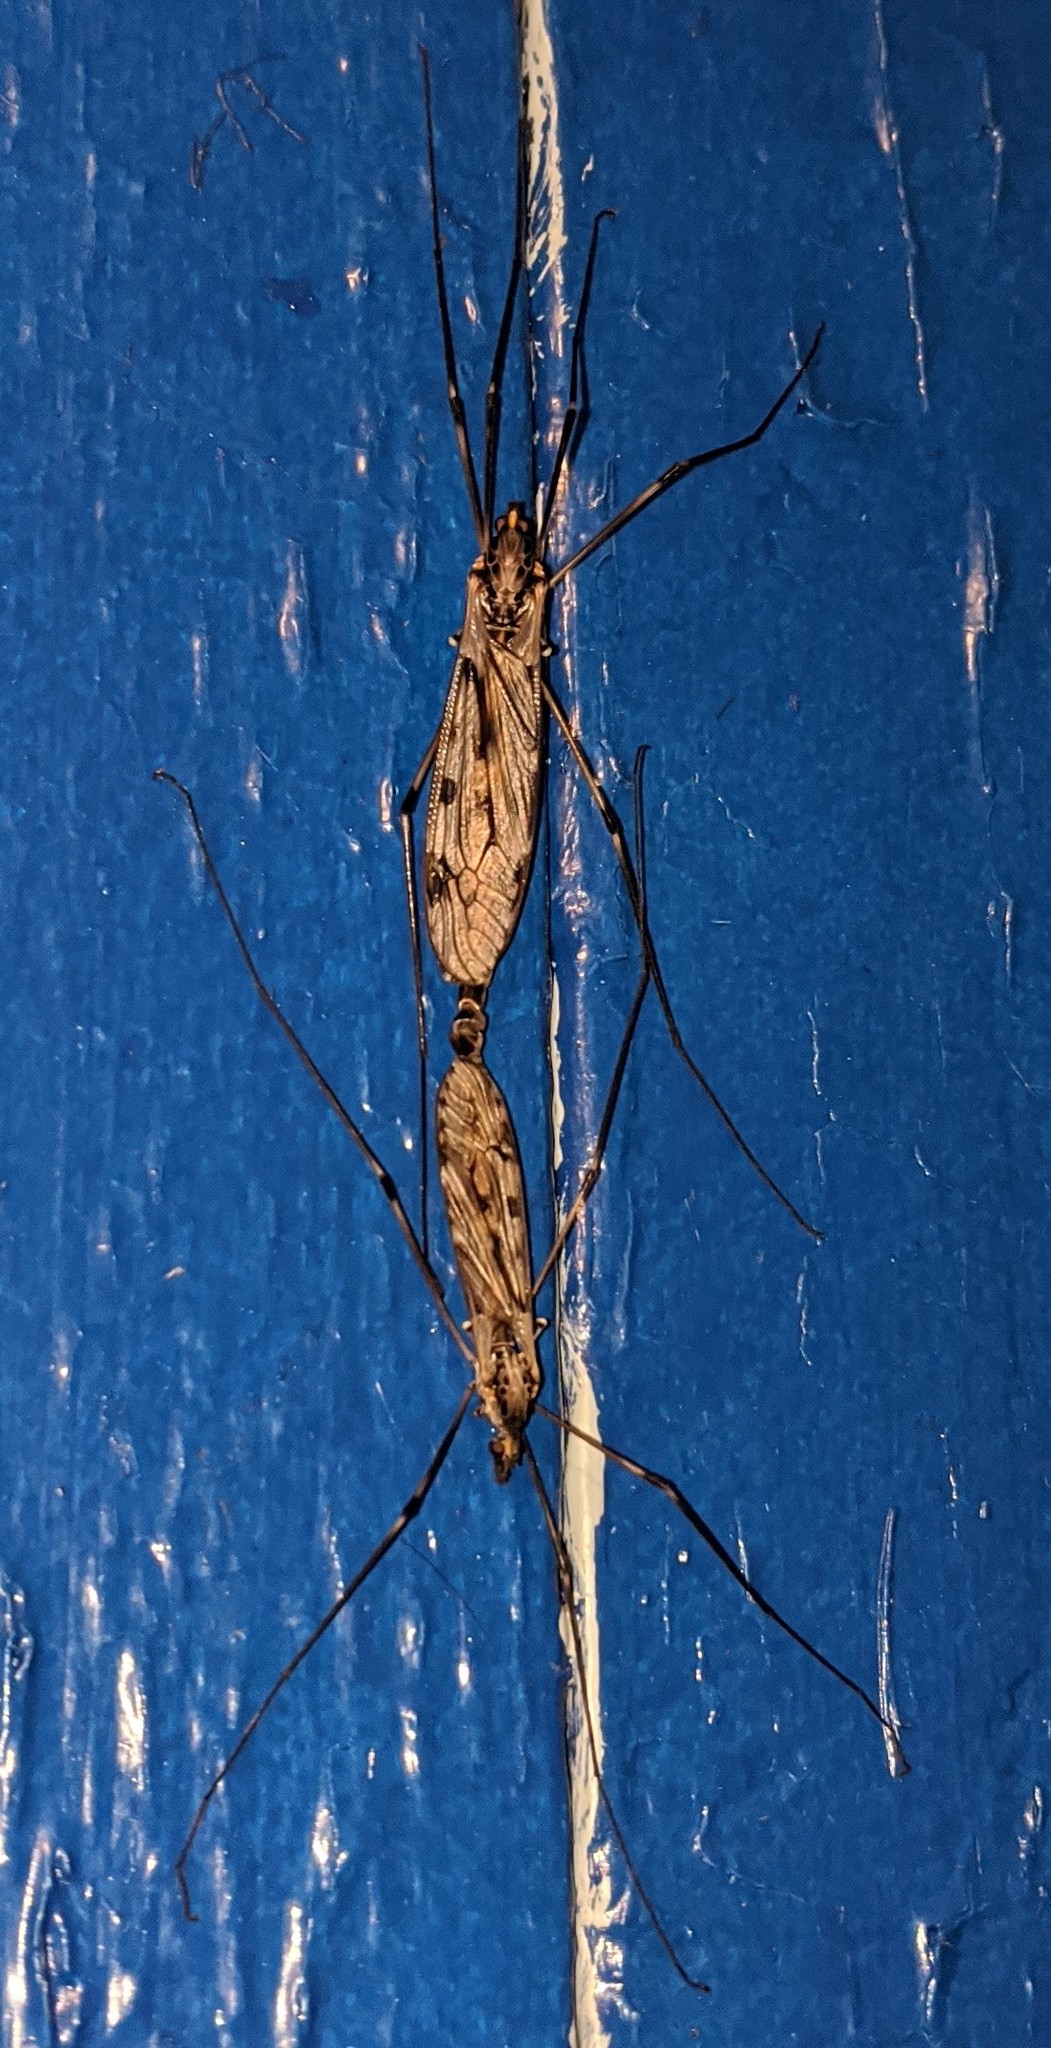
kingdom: Animalia
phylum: Arthropoda
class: Insecta
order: Diptera
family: Tipulidae
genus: Tipula
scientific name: Tipula abdominalis
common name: Giant crane fly
